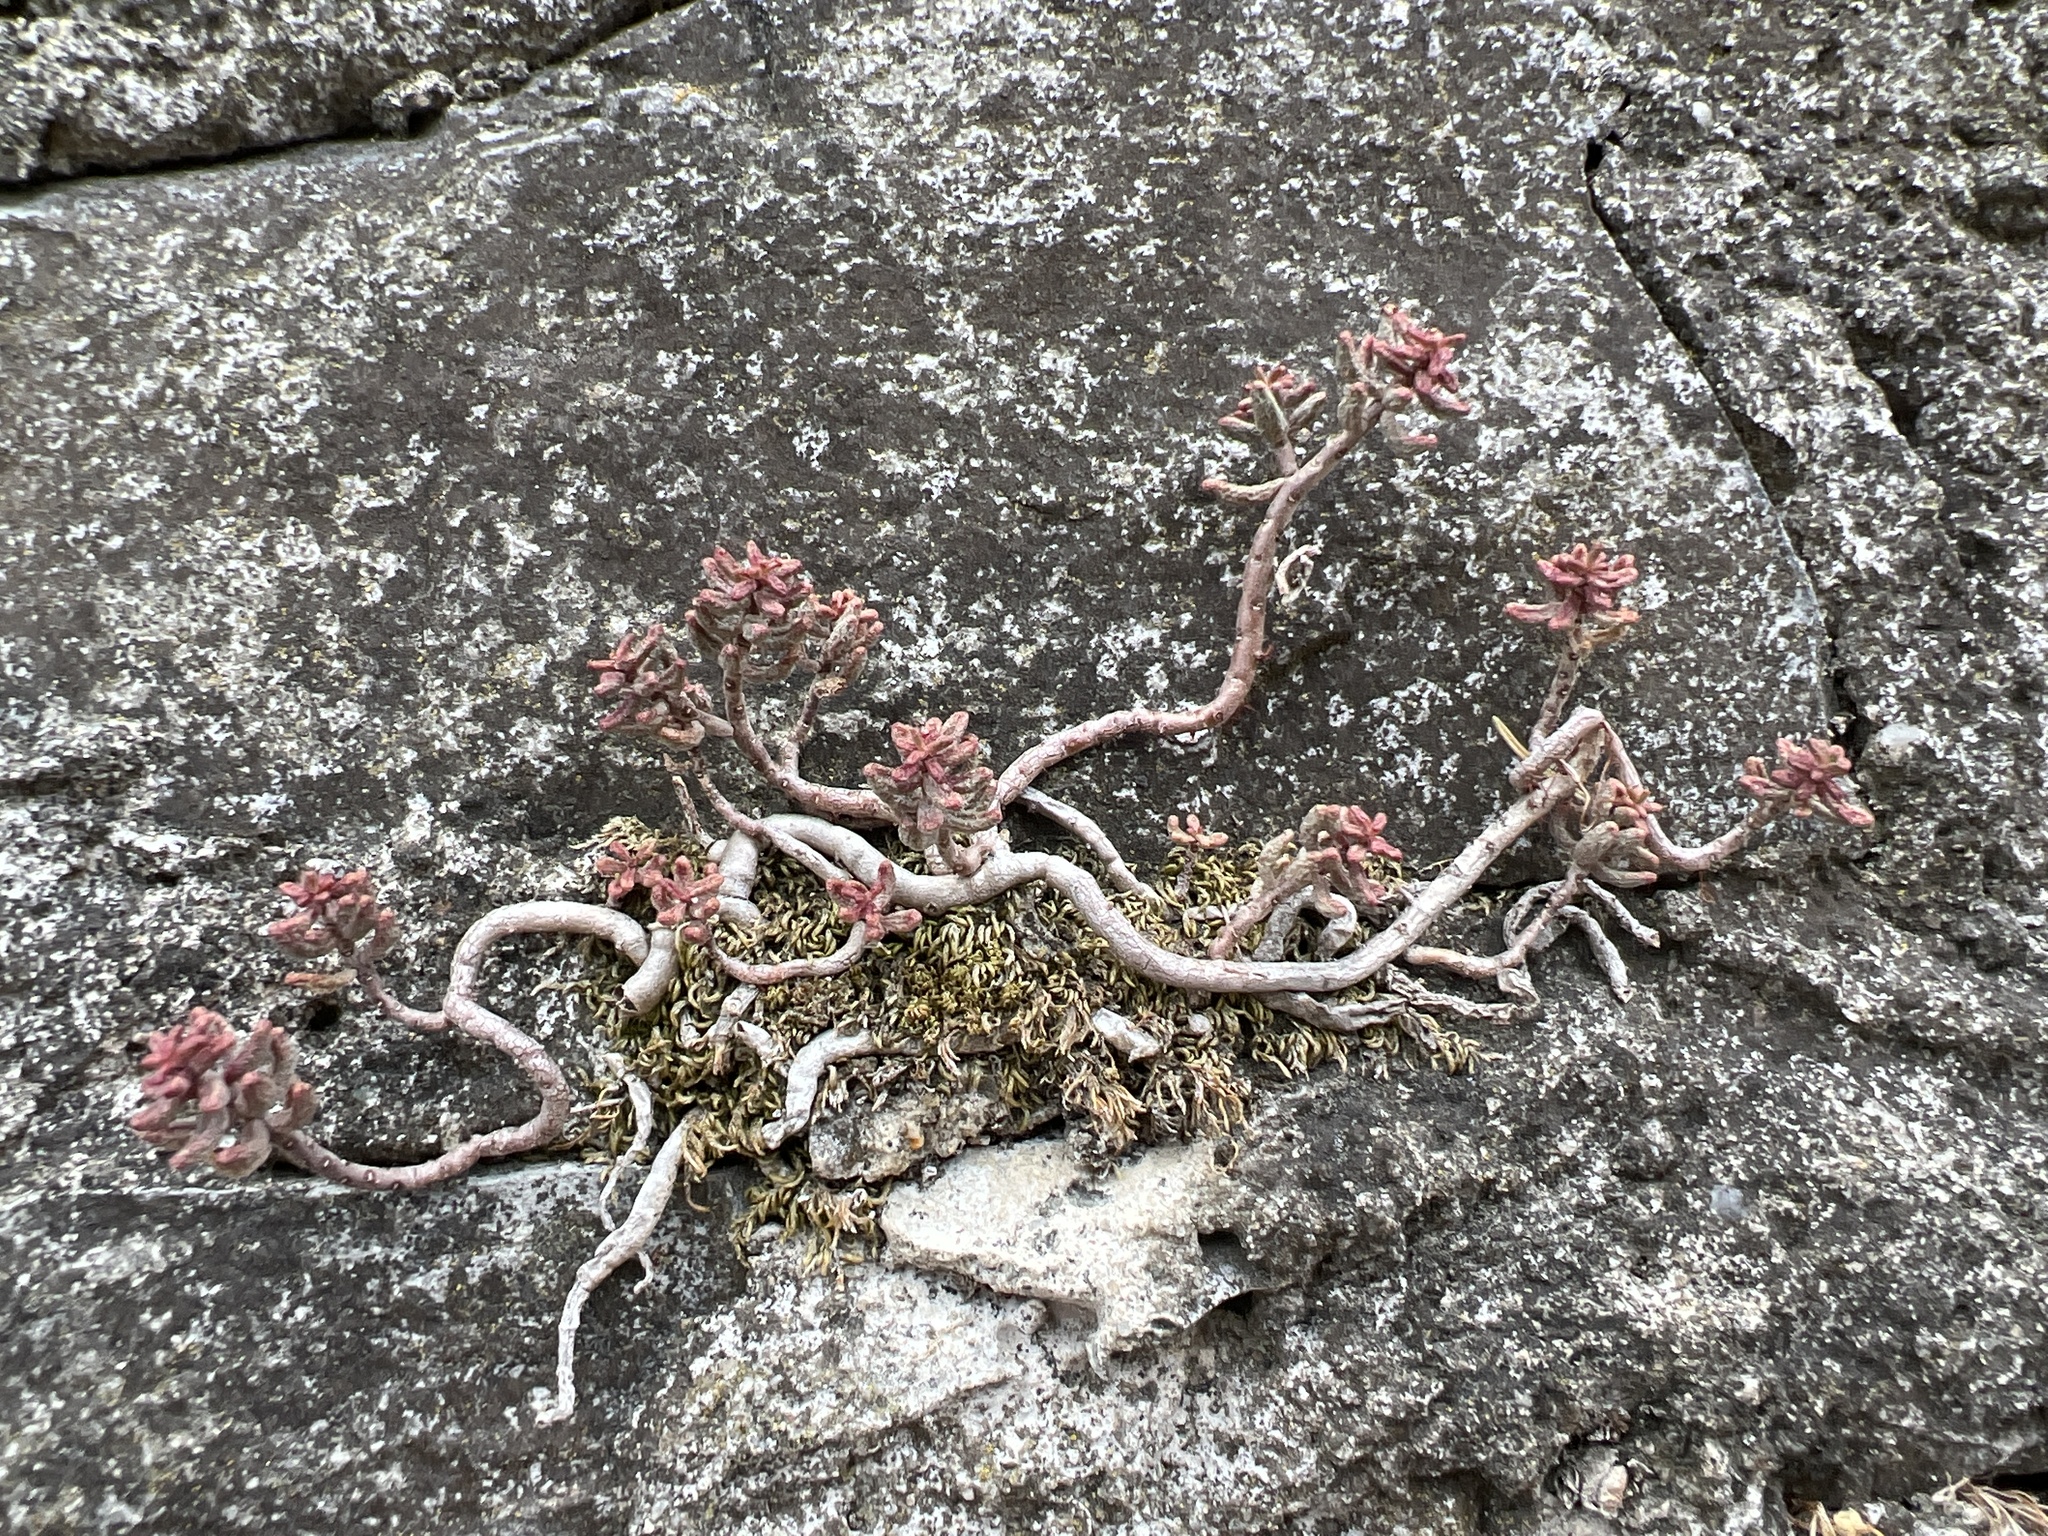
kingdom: Plantae
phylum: Tracheophyta
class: Magnoliopsida
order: Saxifragales
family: Crassulaceae
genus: Sedum
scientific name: Sedum album
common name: White stonecrop
